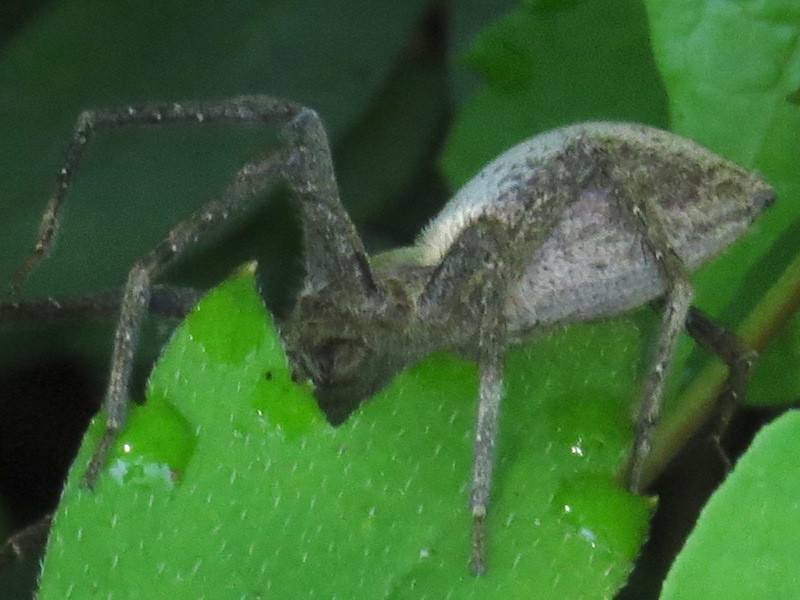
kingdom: Animalia
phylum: Arthropoda
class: Arachnida
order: Araneae
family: Pisauridae
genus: Pisaurina
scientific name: Pisaurina mira
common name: American nursery web spider
